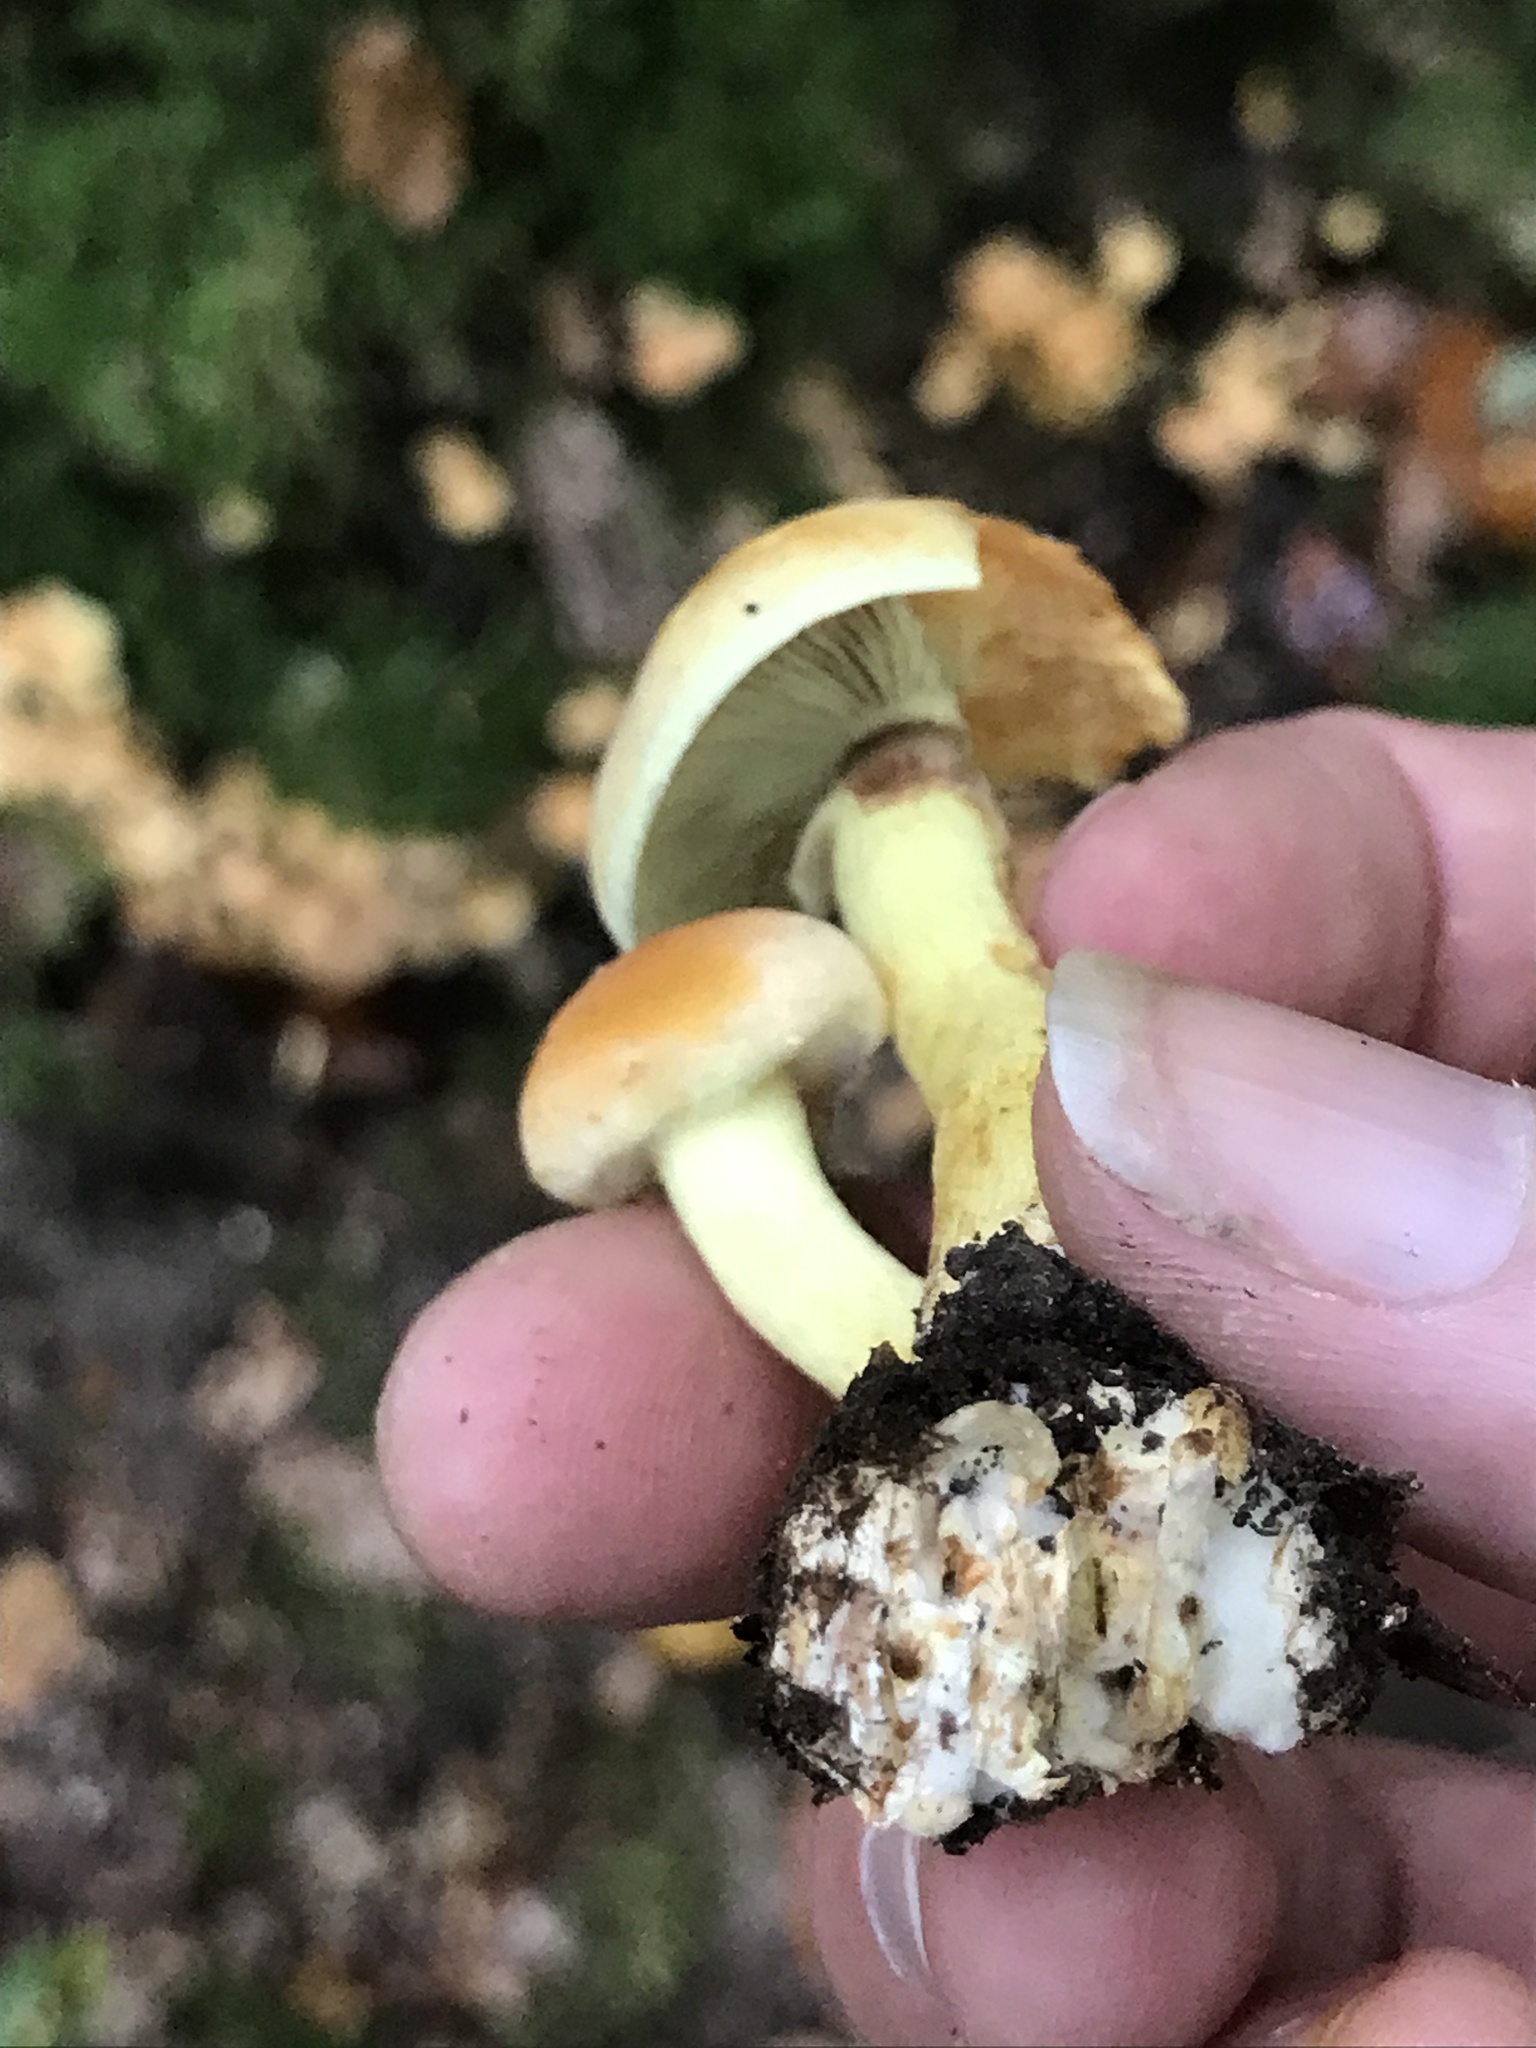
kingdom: Fungi
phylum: Basidiomycota
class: Agaricomycetes
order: Agaricales
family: Strophariaceae
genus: Hypholoma
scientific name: Hypholoma fasciculare
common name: Sulphur tuft
